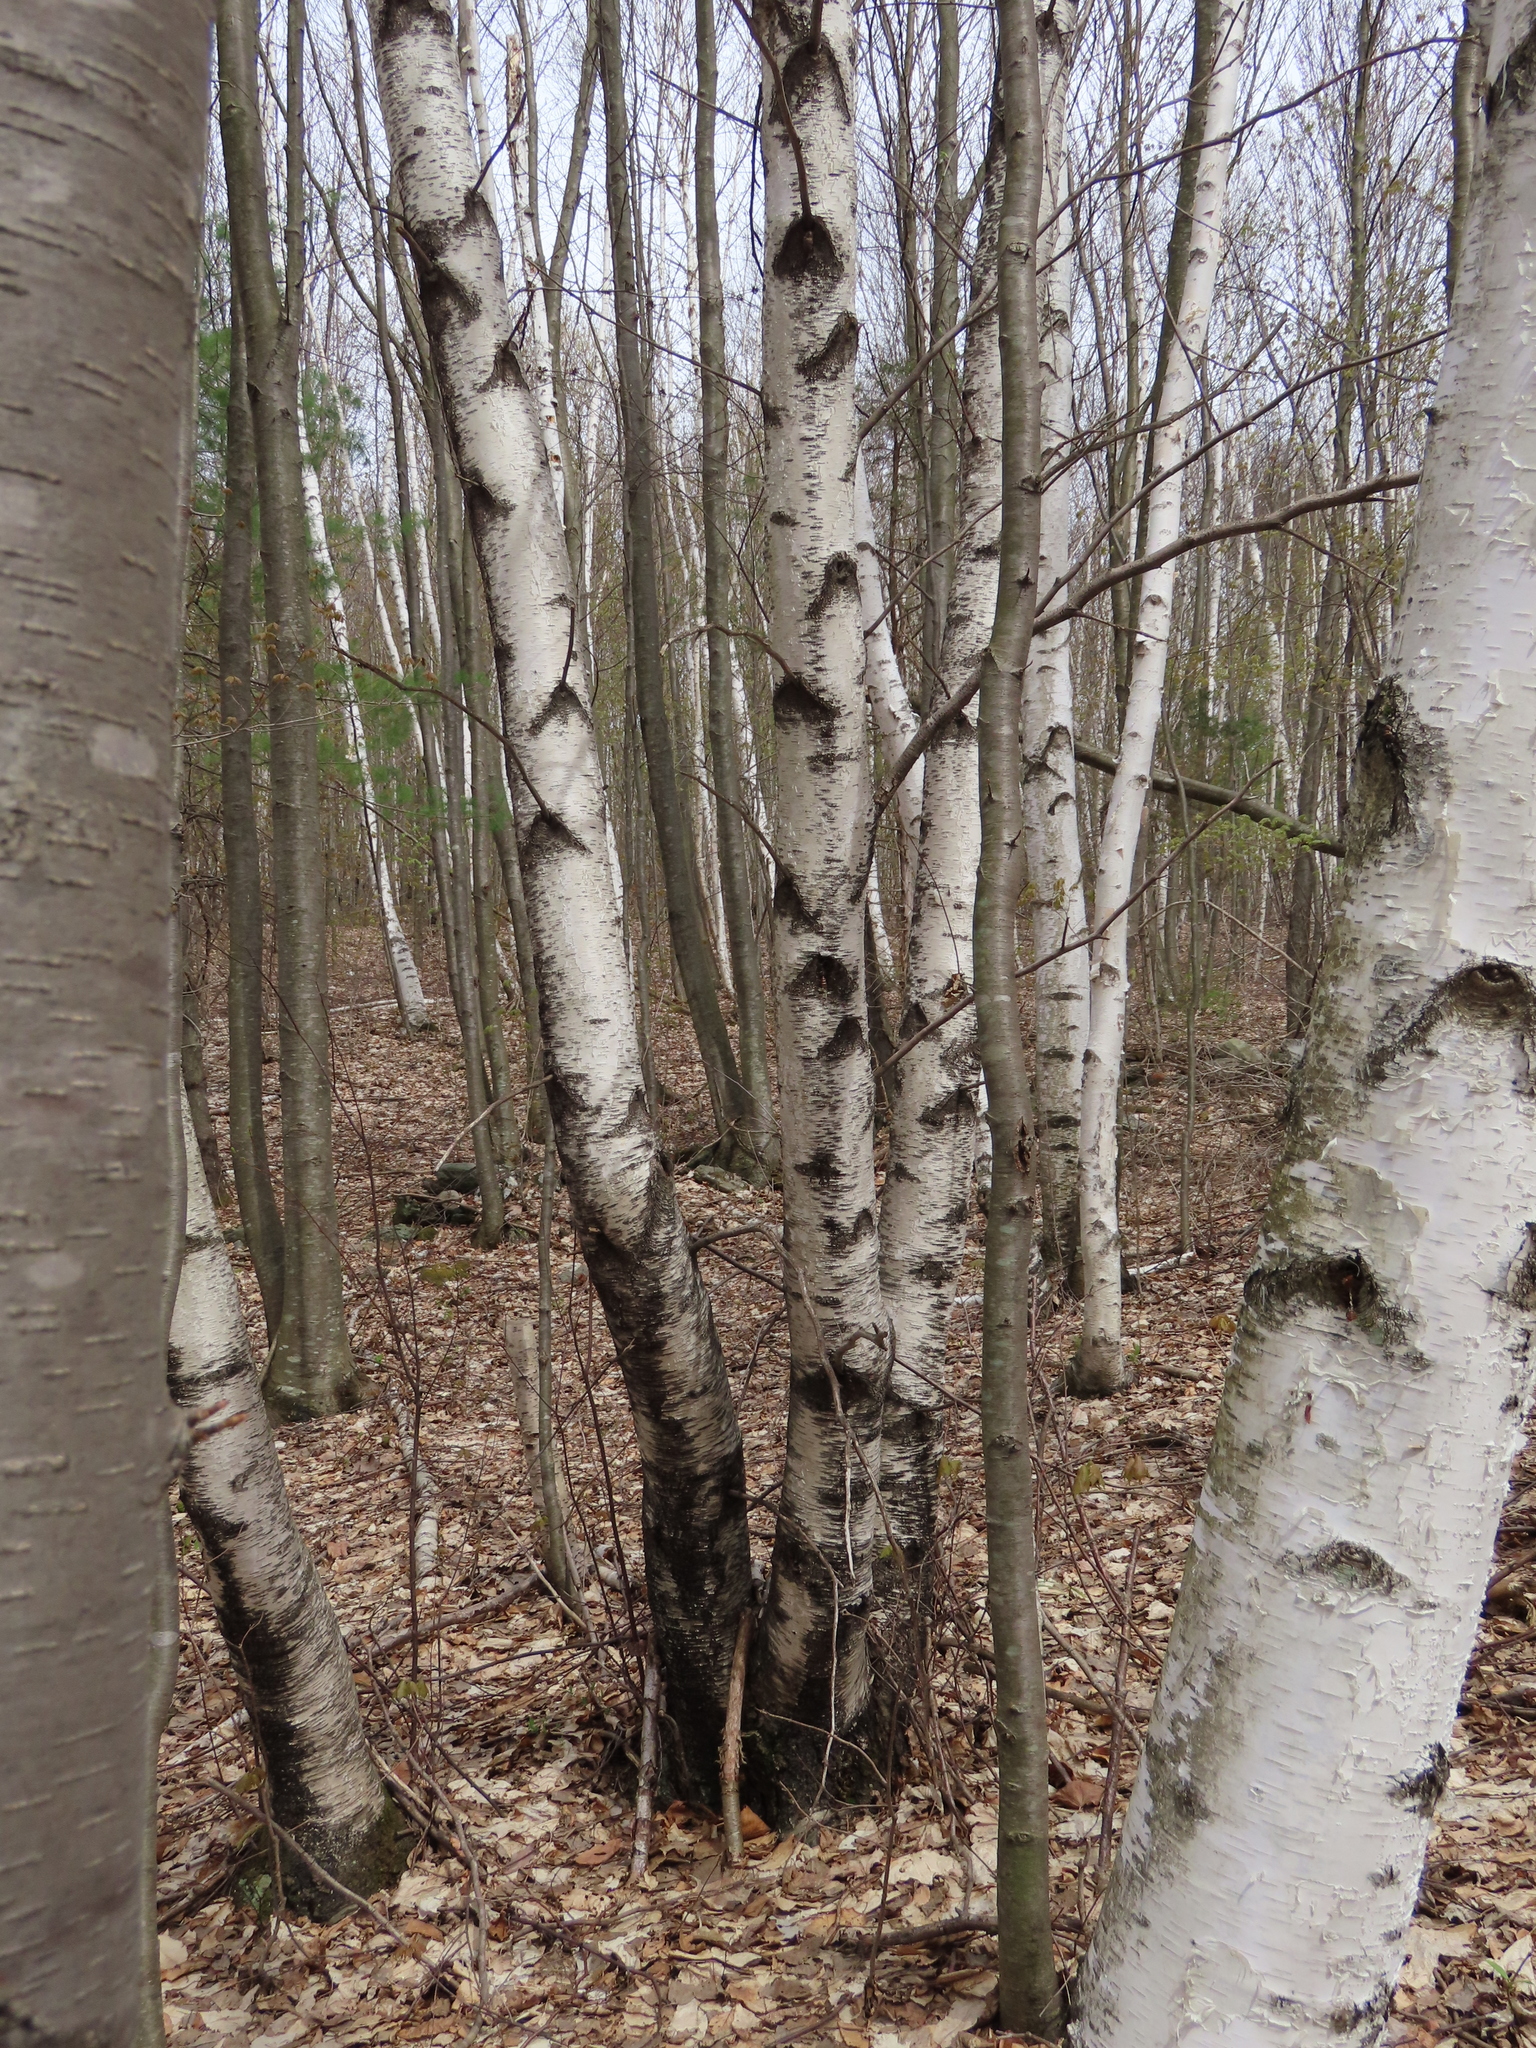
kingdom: Plantae
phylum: Tracheophyta
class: Magnoliopsida
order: Fagales
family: Betulaceae
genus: Betula
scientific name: Betula populifolia
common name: Fire birch
